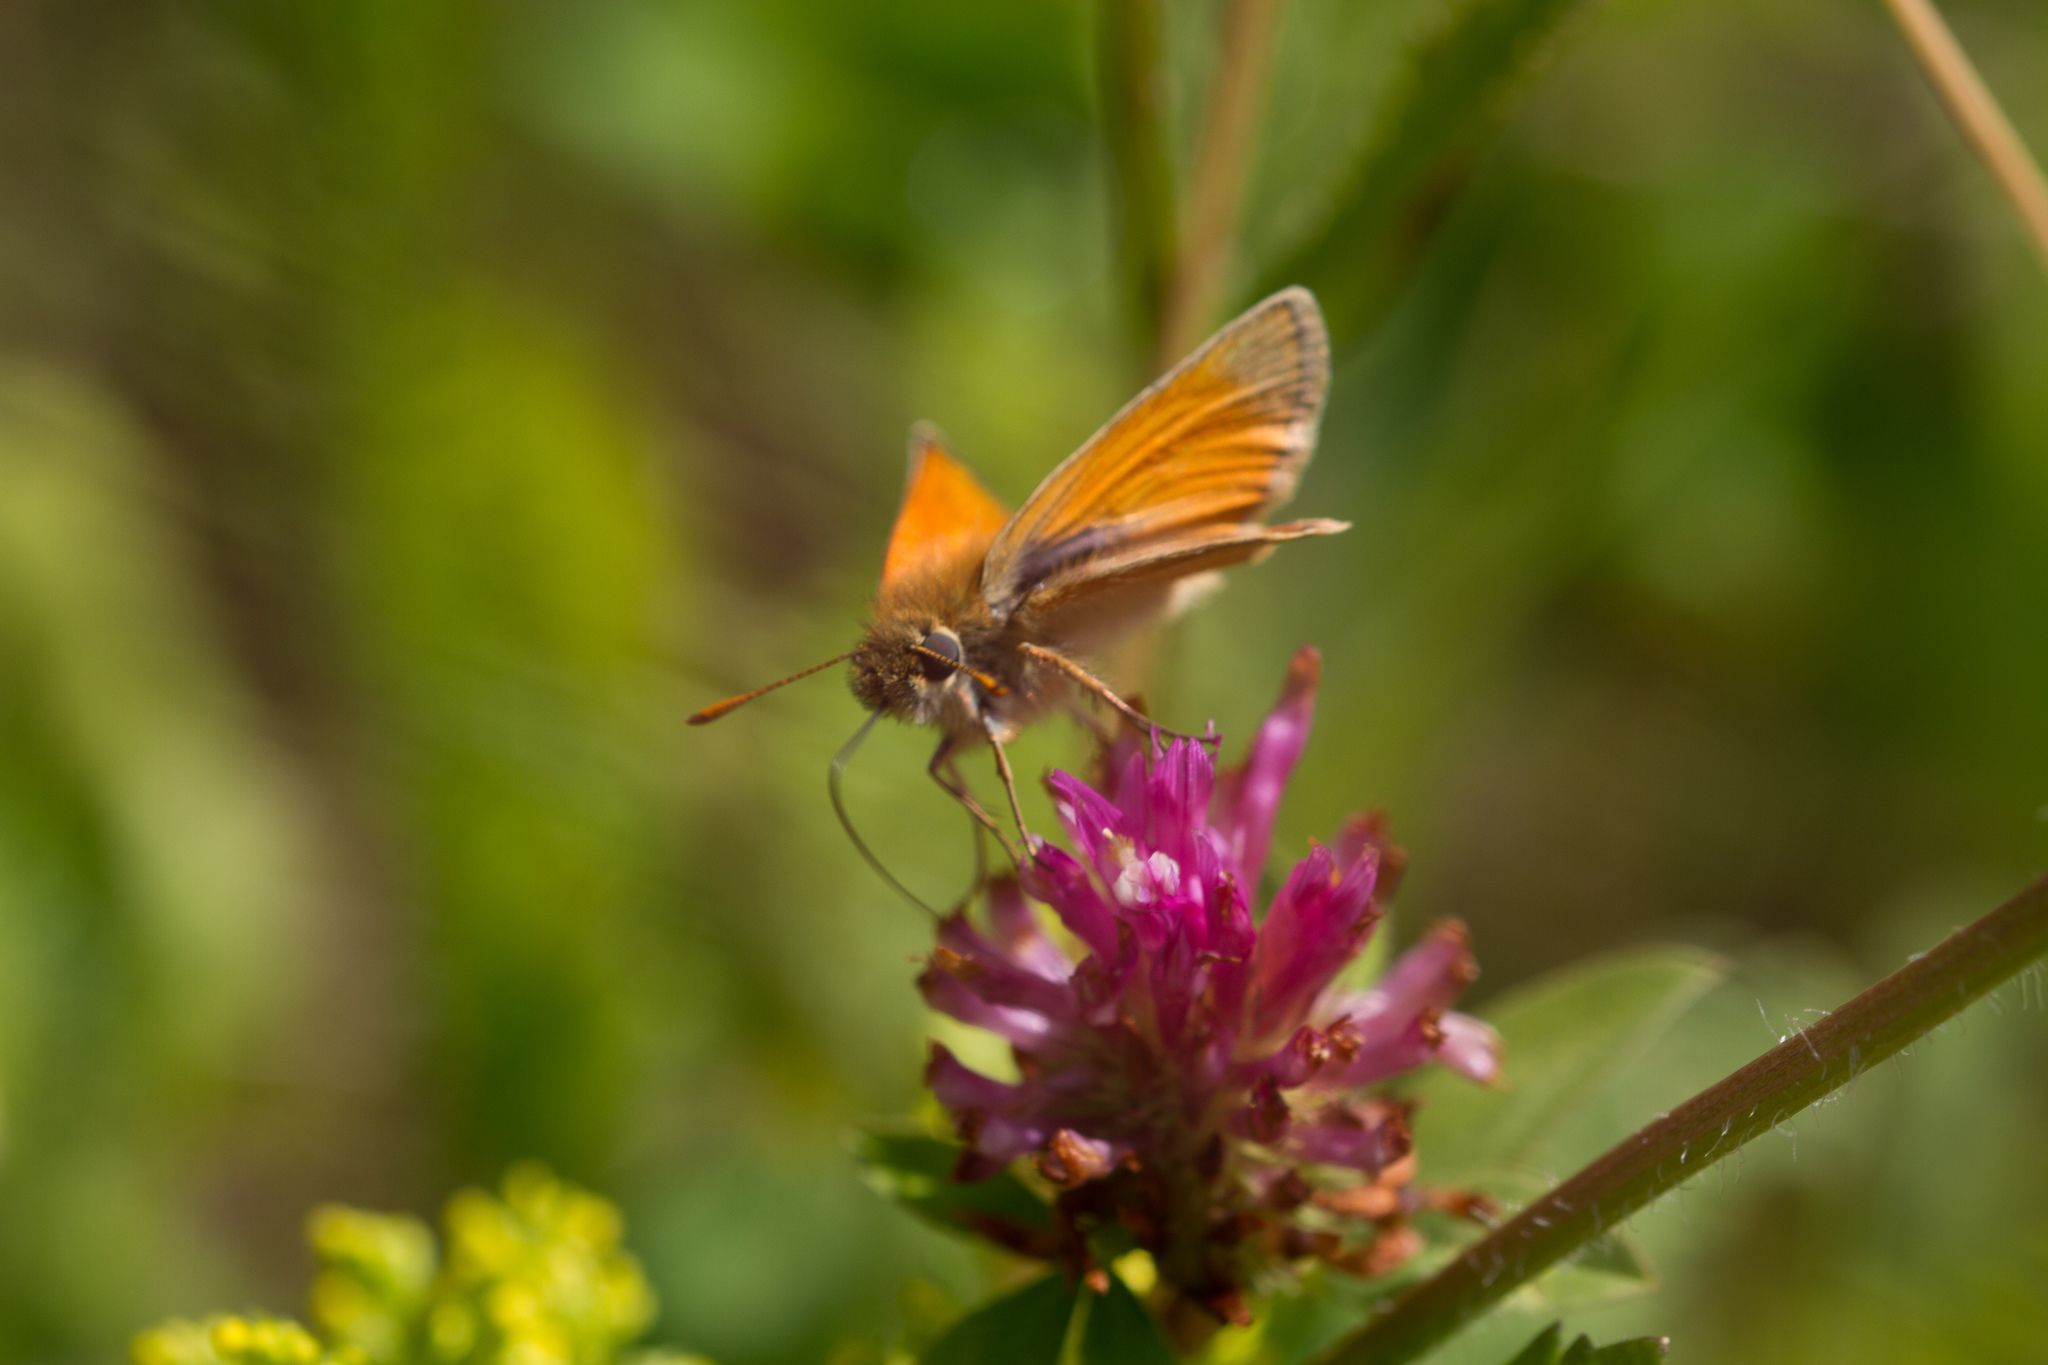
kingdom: Animalia
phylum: Arthropoda
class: Insecta
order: Lepidoptera
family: Hesperiidae
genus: Thymelicus
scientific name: Thymelicus sylvestris
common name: Small skipper
